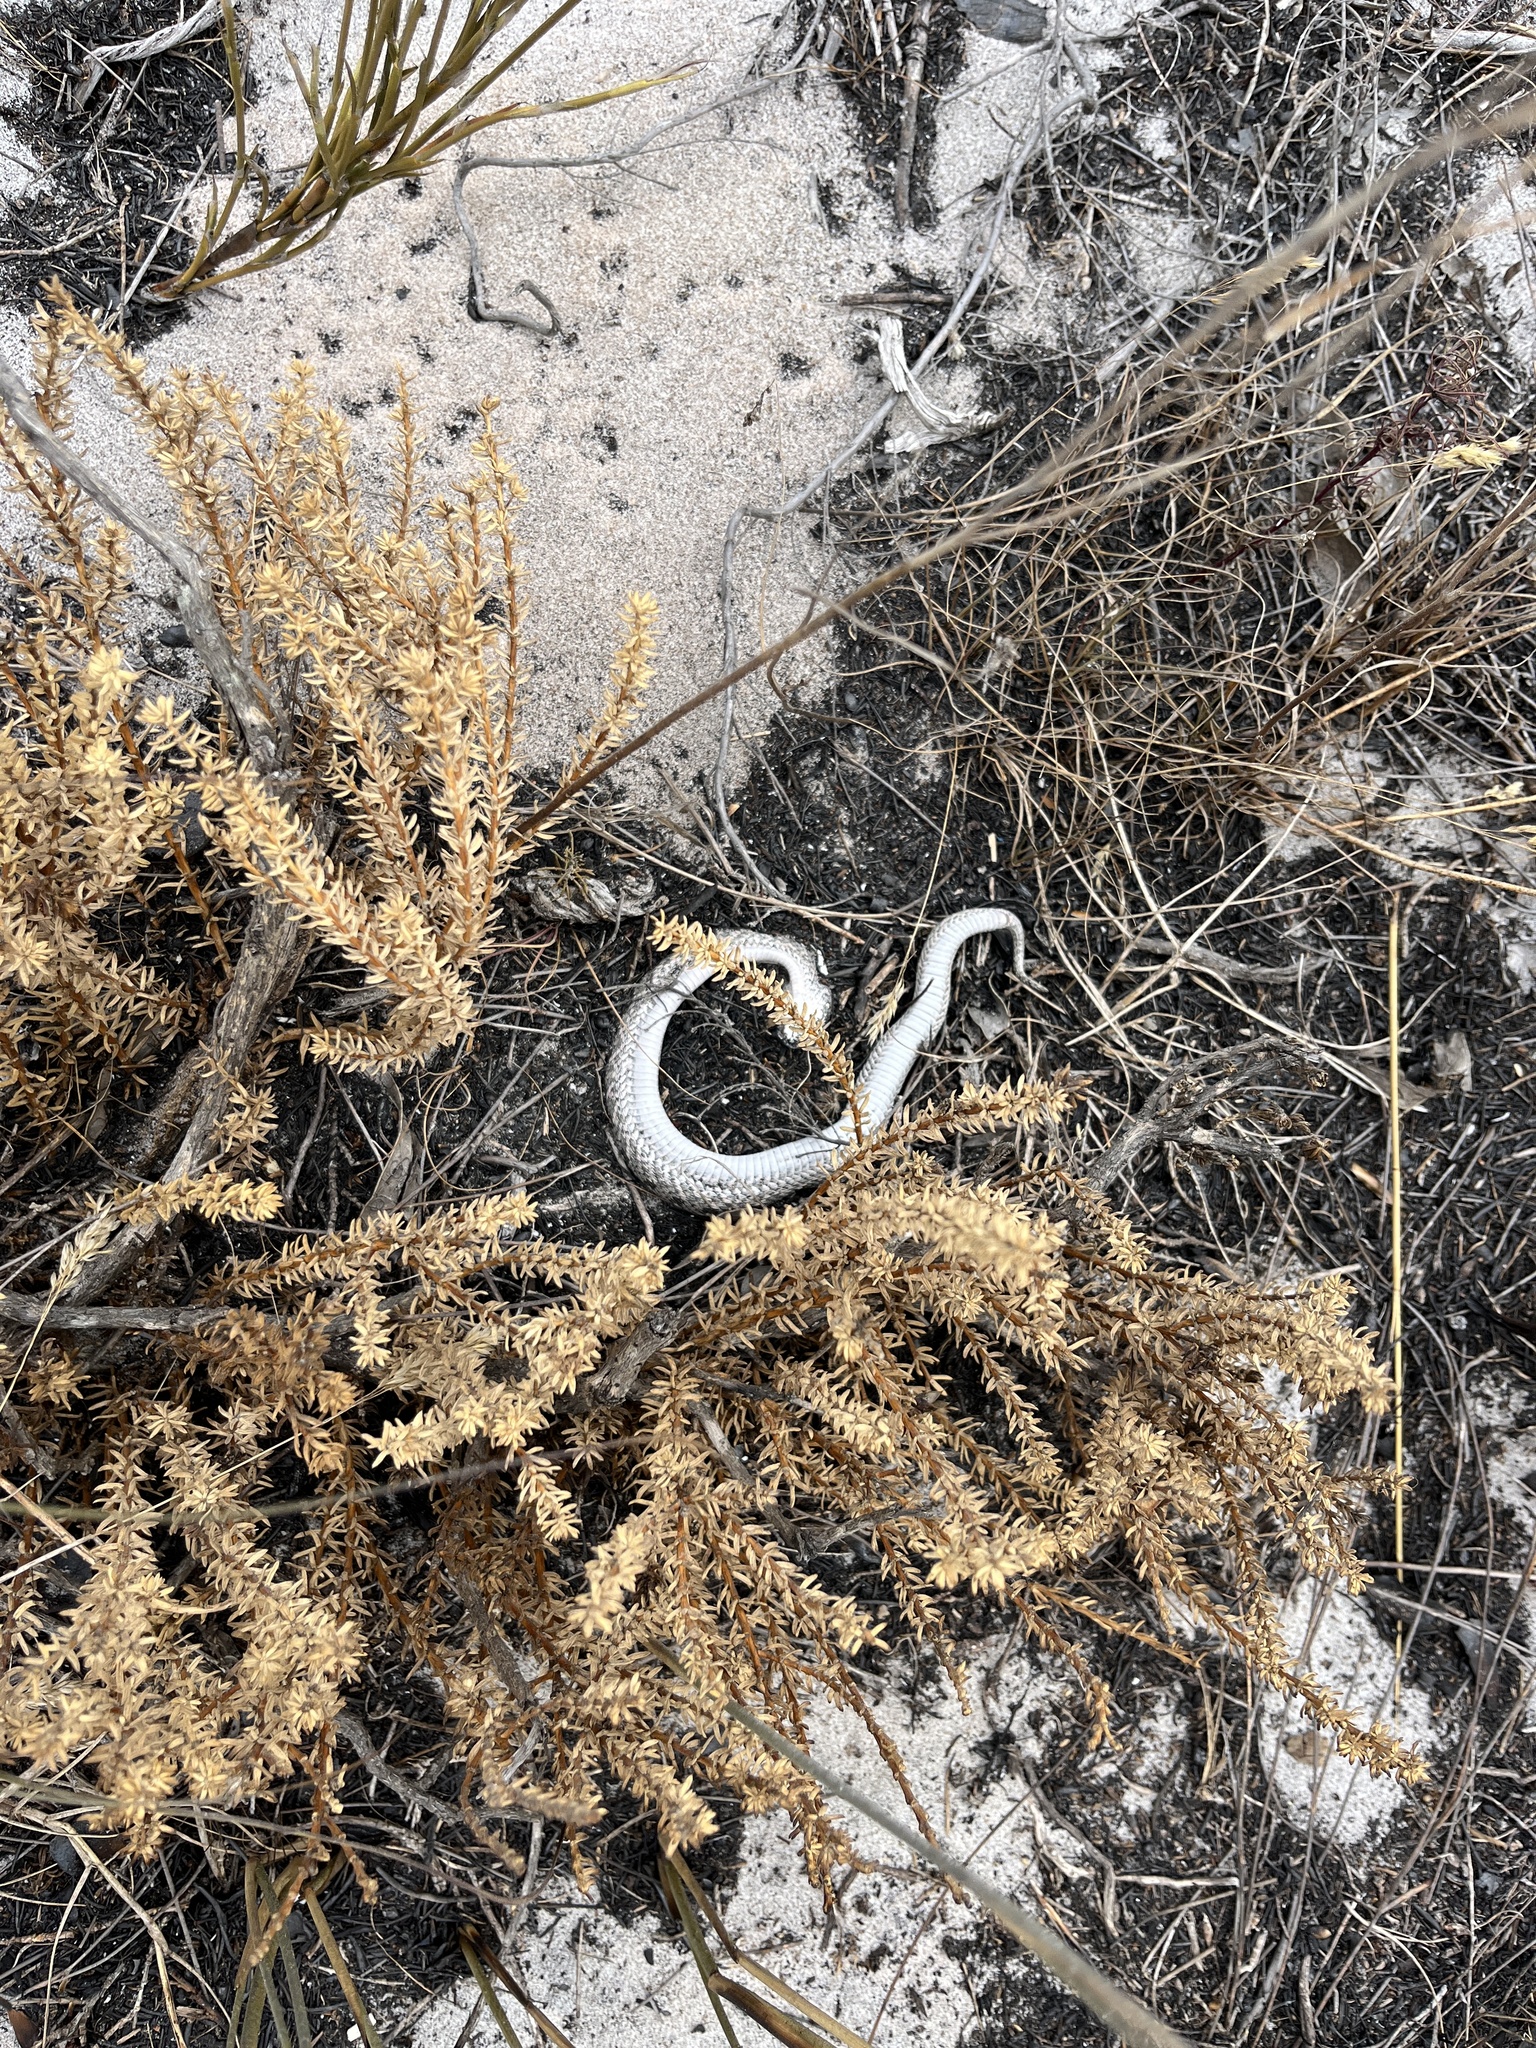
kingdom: Animalia
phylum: Chordata
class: Squamata
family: Viperidae
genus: Bitis
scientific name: Bitis armata
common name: Southern adder
